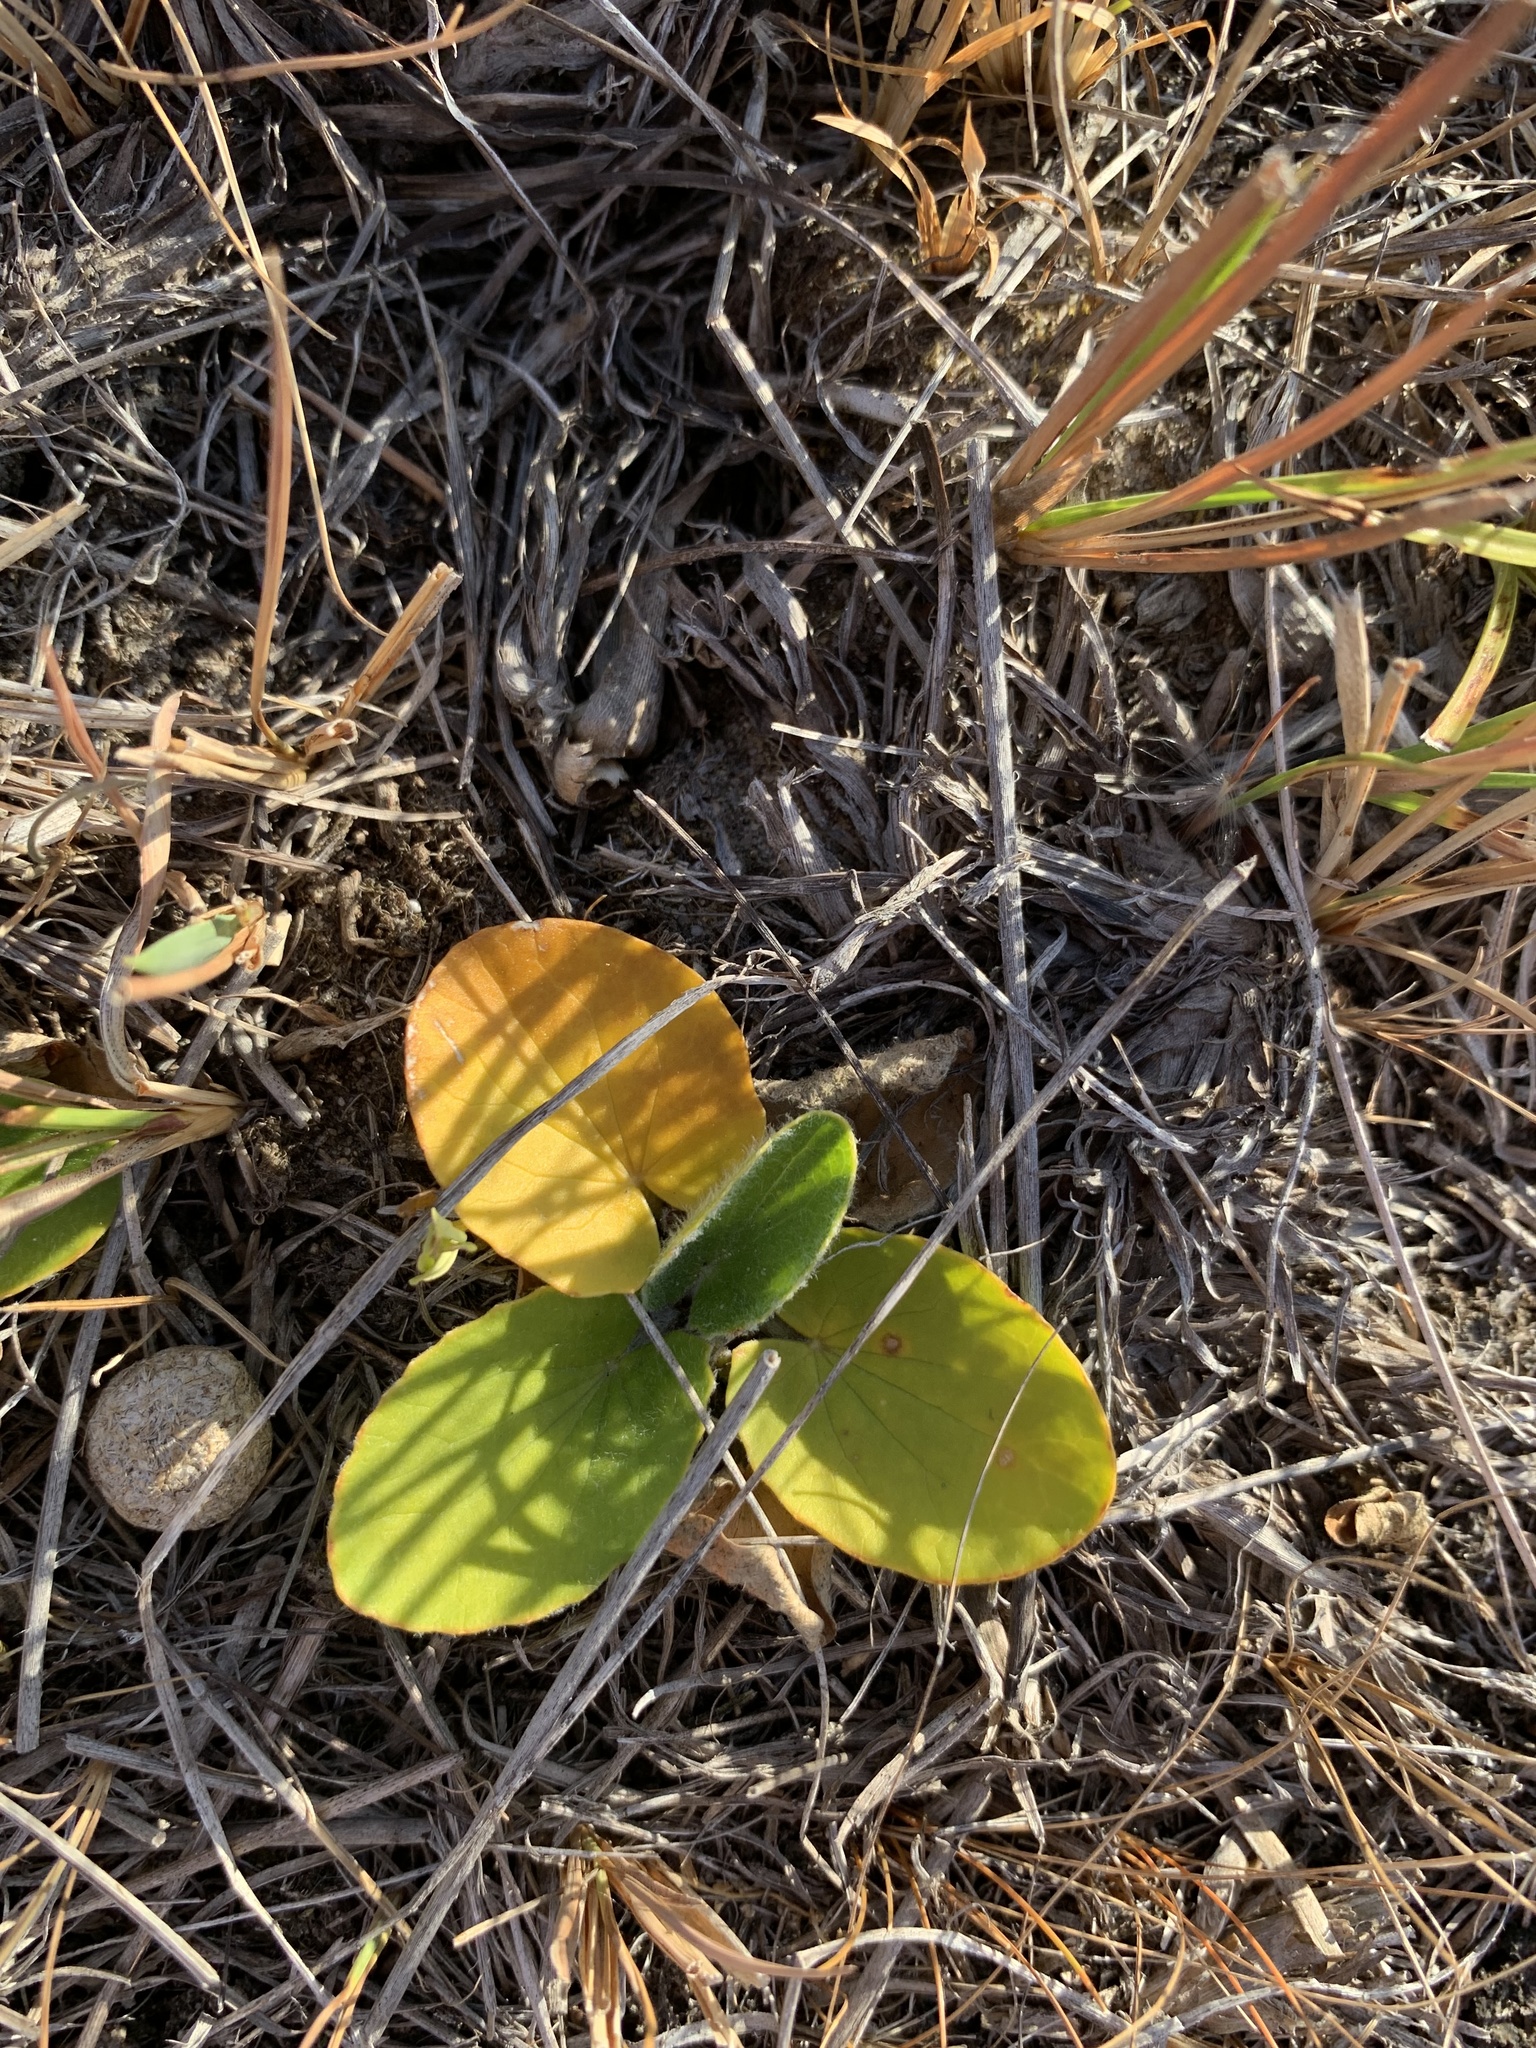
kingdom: Plantae
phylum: Tracheophyta
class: Magnoliopsida
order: Apiales
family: Apiaceae
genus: Centella
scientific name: Centella asiatica
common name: Spadeleaf
